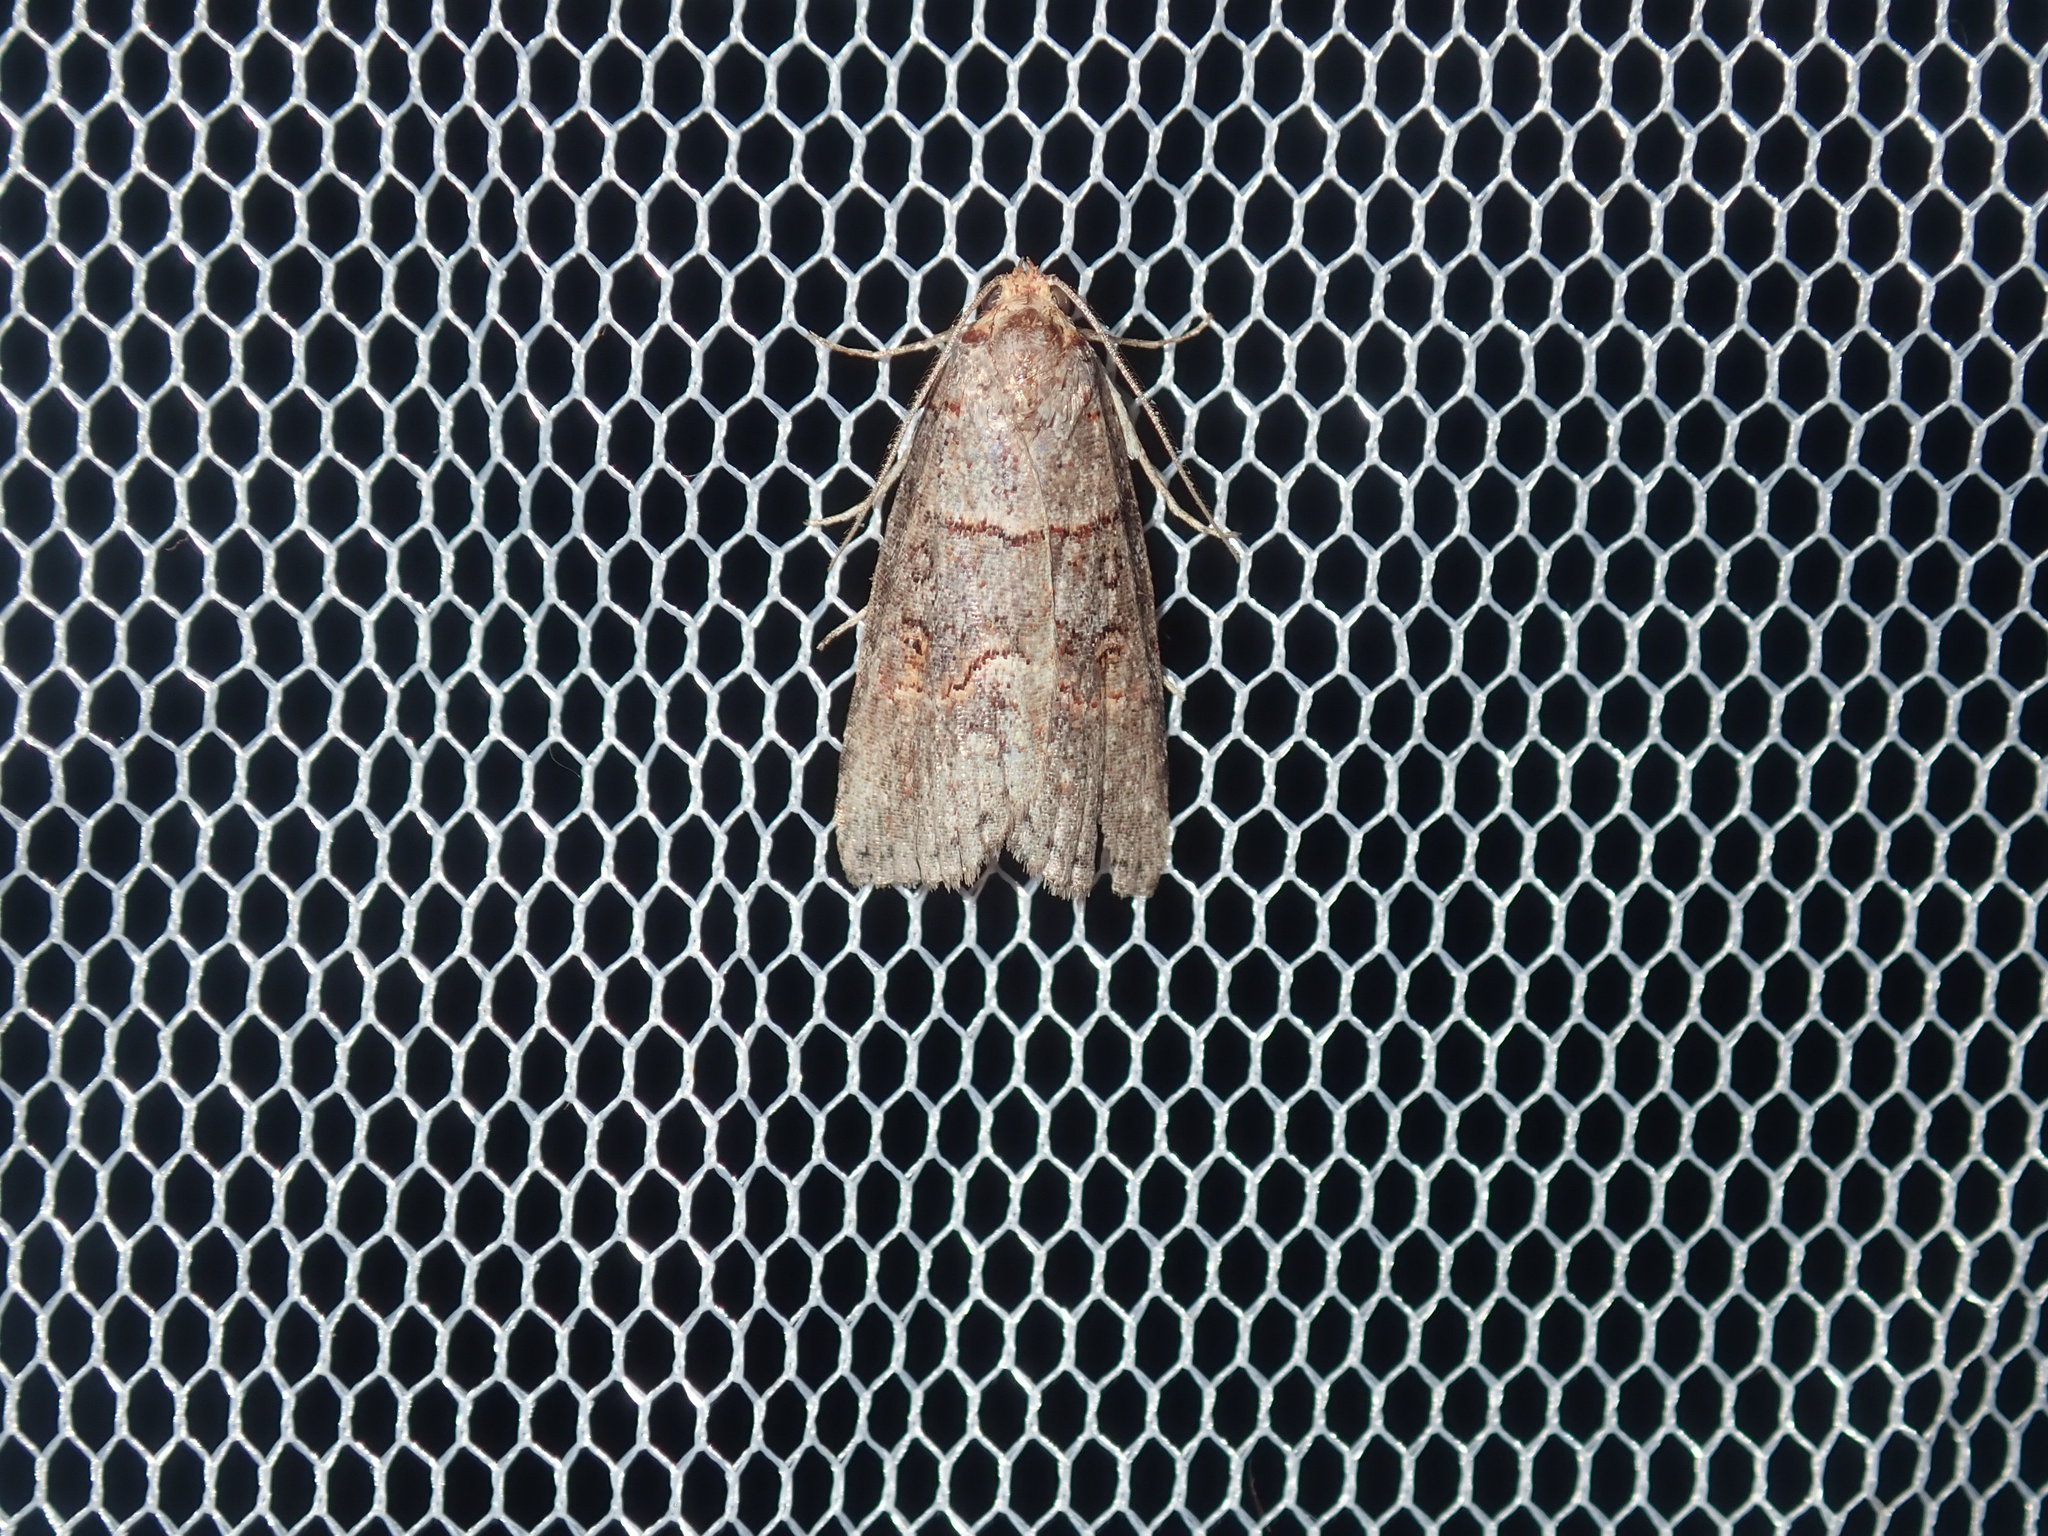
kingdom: Animalia
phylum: Arthropoda
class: Insecta
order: Lepidoptera
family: Nolidae
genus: Calathusa
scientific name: Calathusa hypotherma
